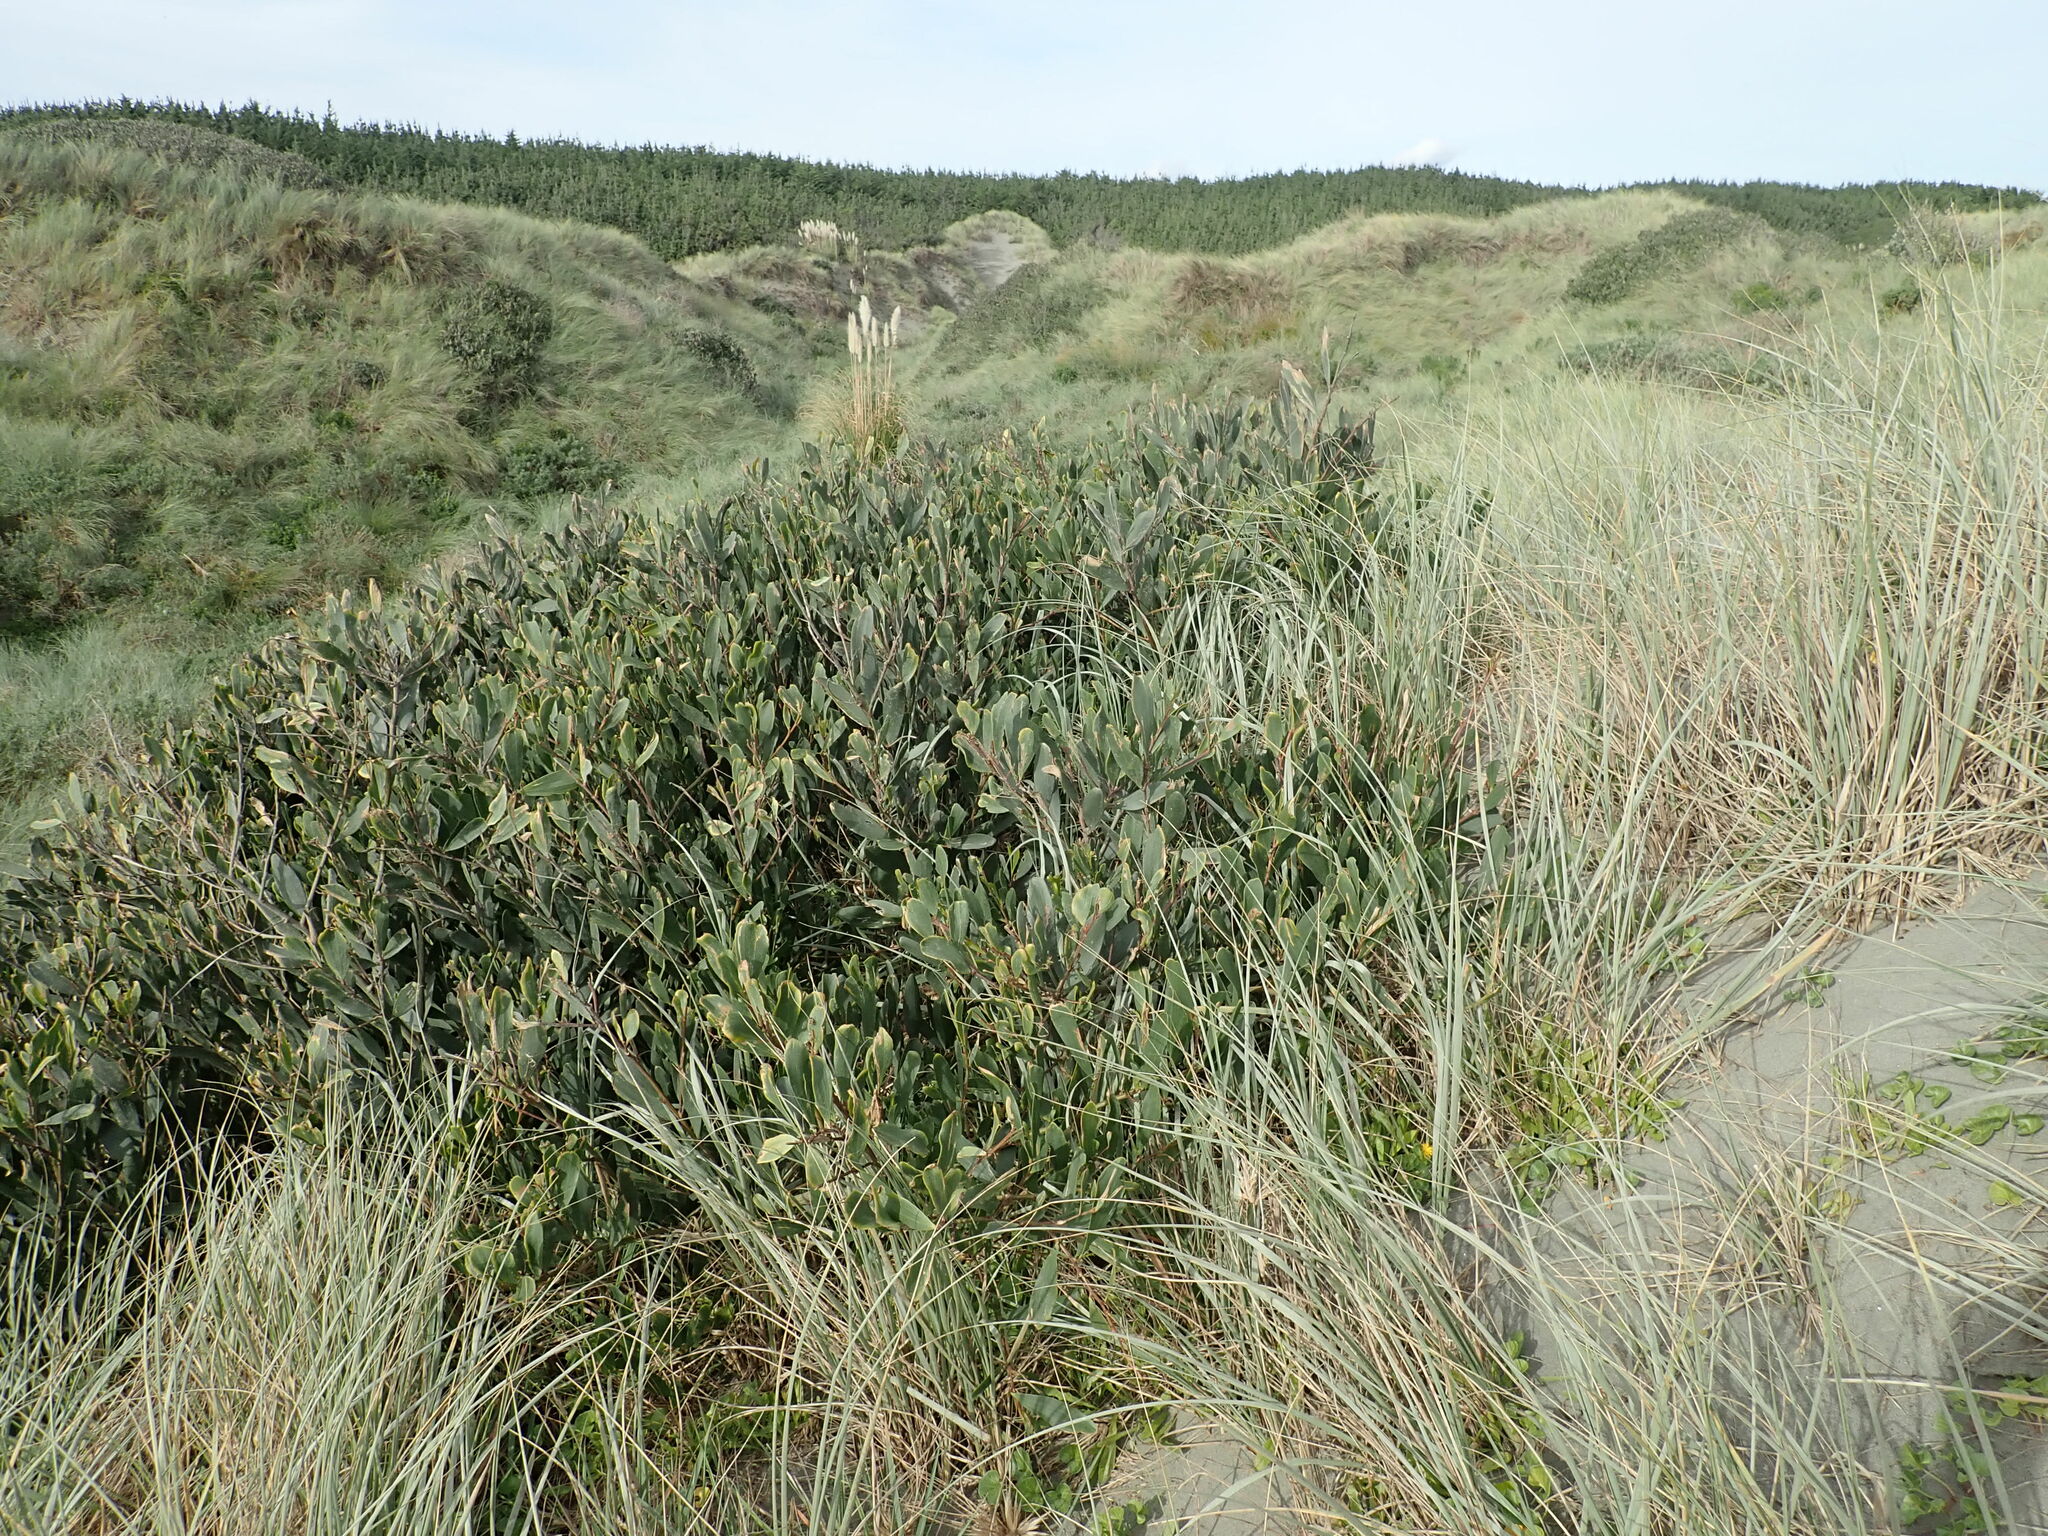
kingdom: Plantae
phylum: Tracheophyta
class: Magnoliopsida
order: Fabales
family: Fabaceae
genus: Acacia
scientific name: Acacia longifolia
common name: Sydney golden wattle
